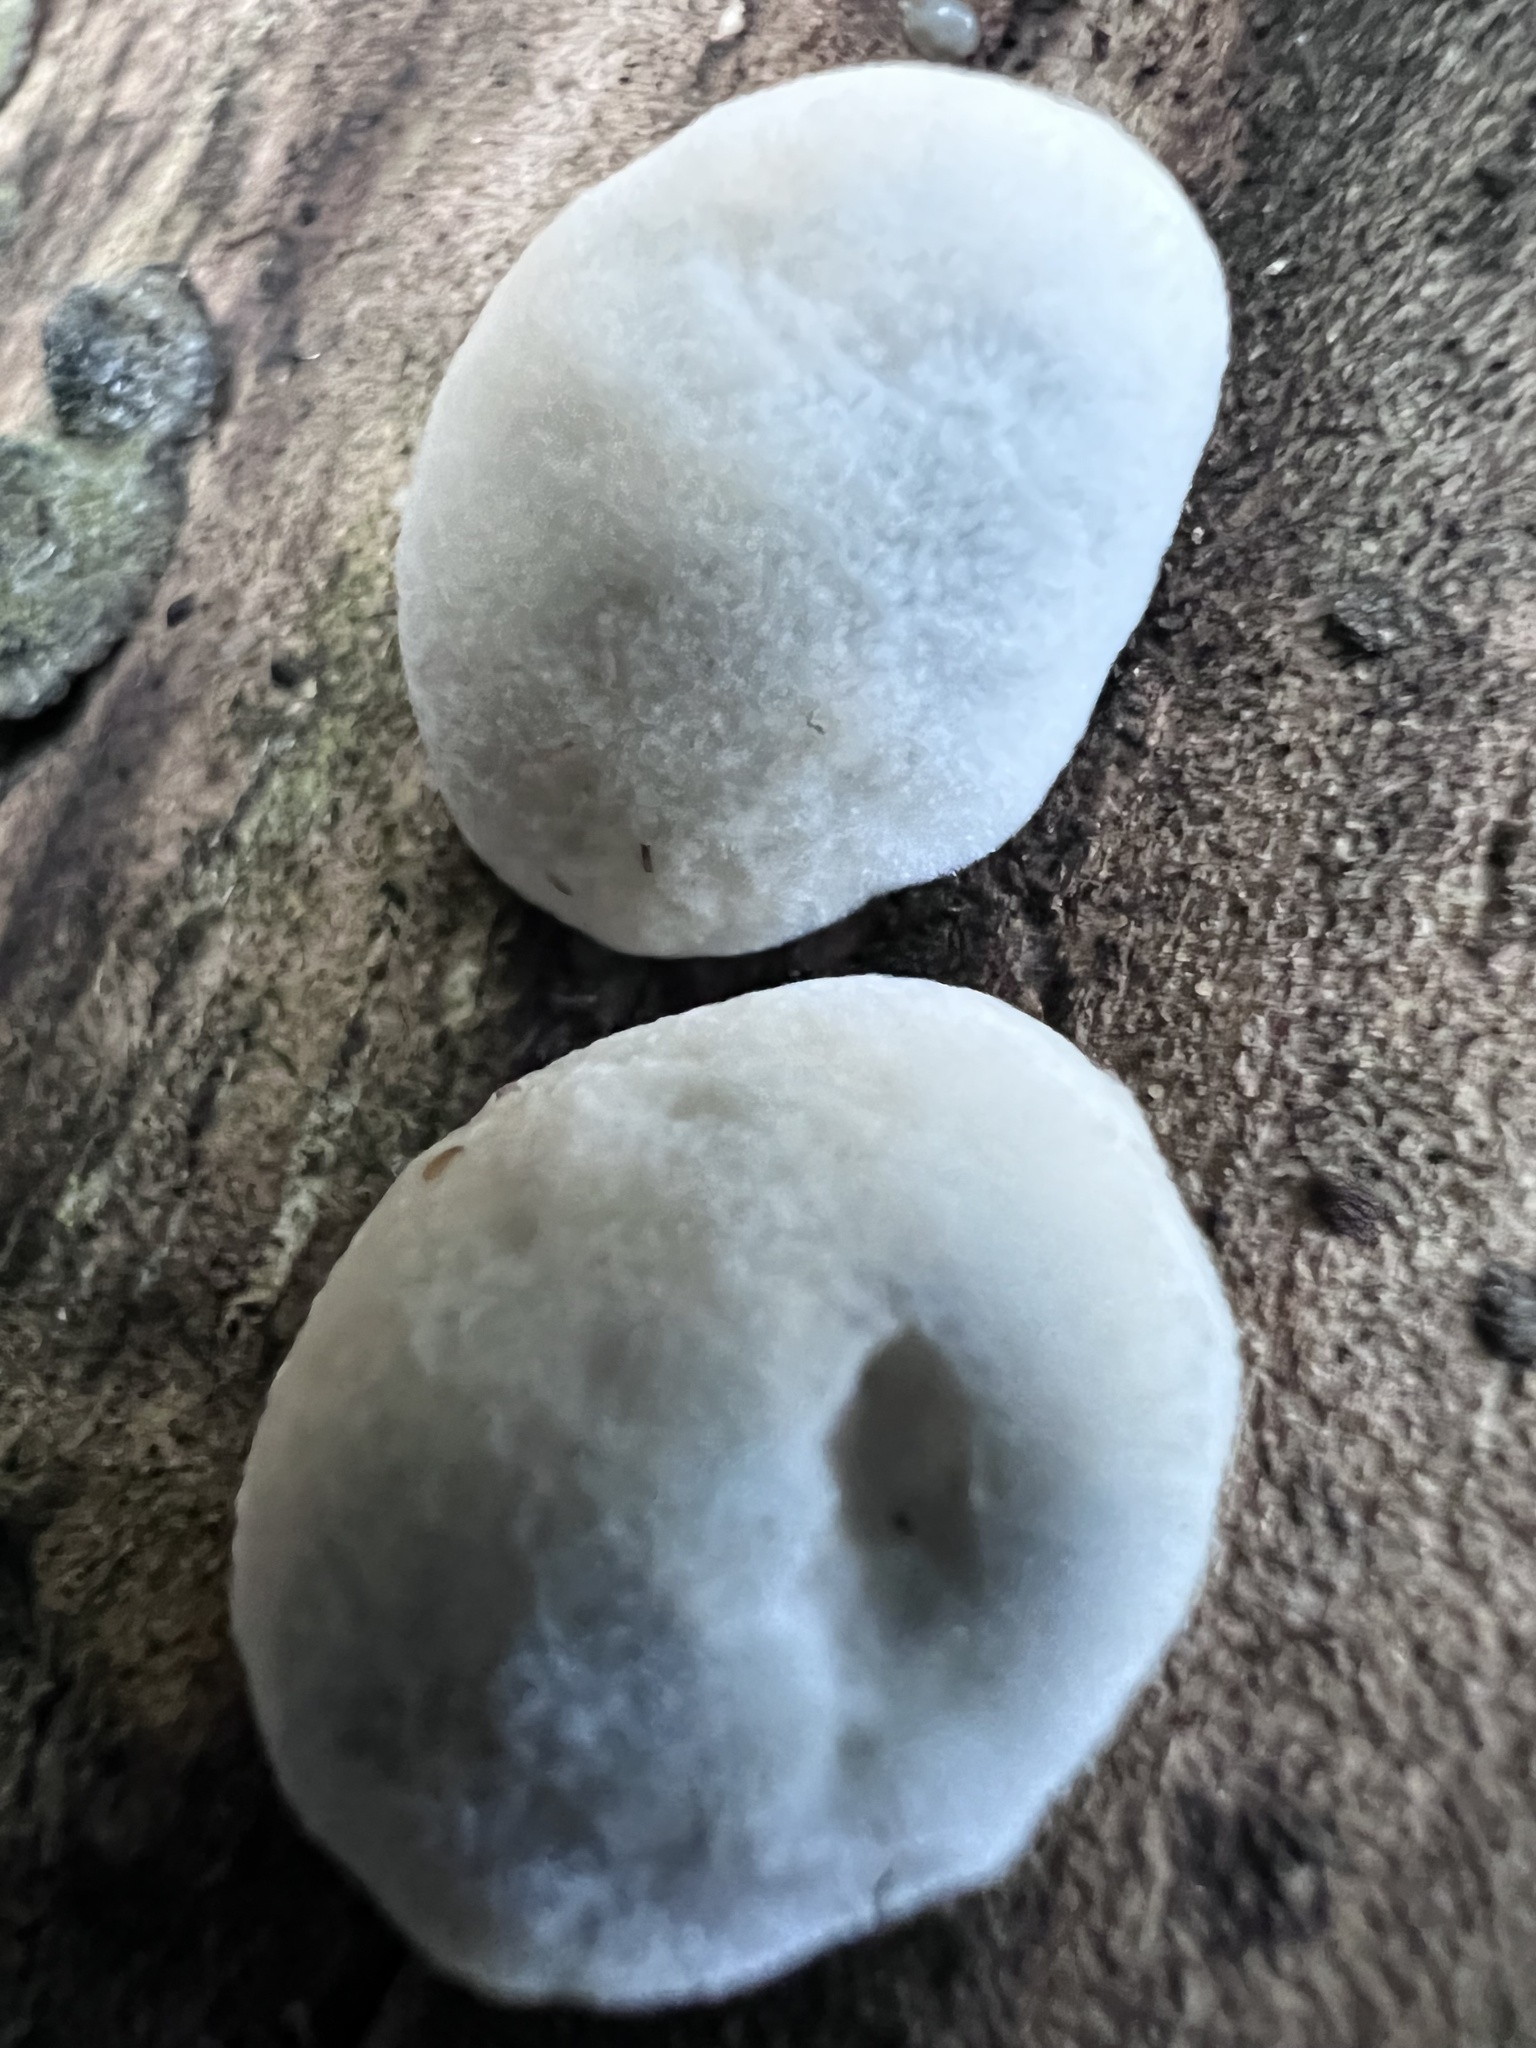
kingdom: Fungi
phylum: Basidiomycota
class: Agaricomycetes
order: Polyporales
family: Polyporaceae
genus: Cyanosporus
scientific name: Cyanosporus livens
